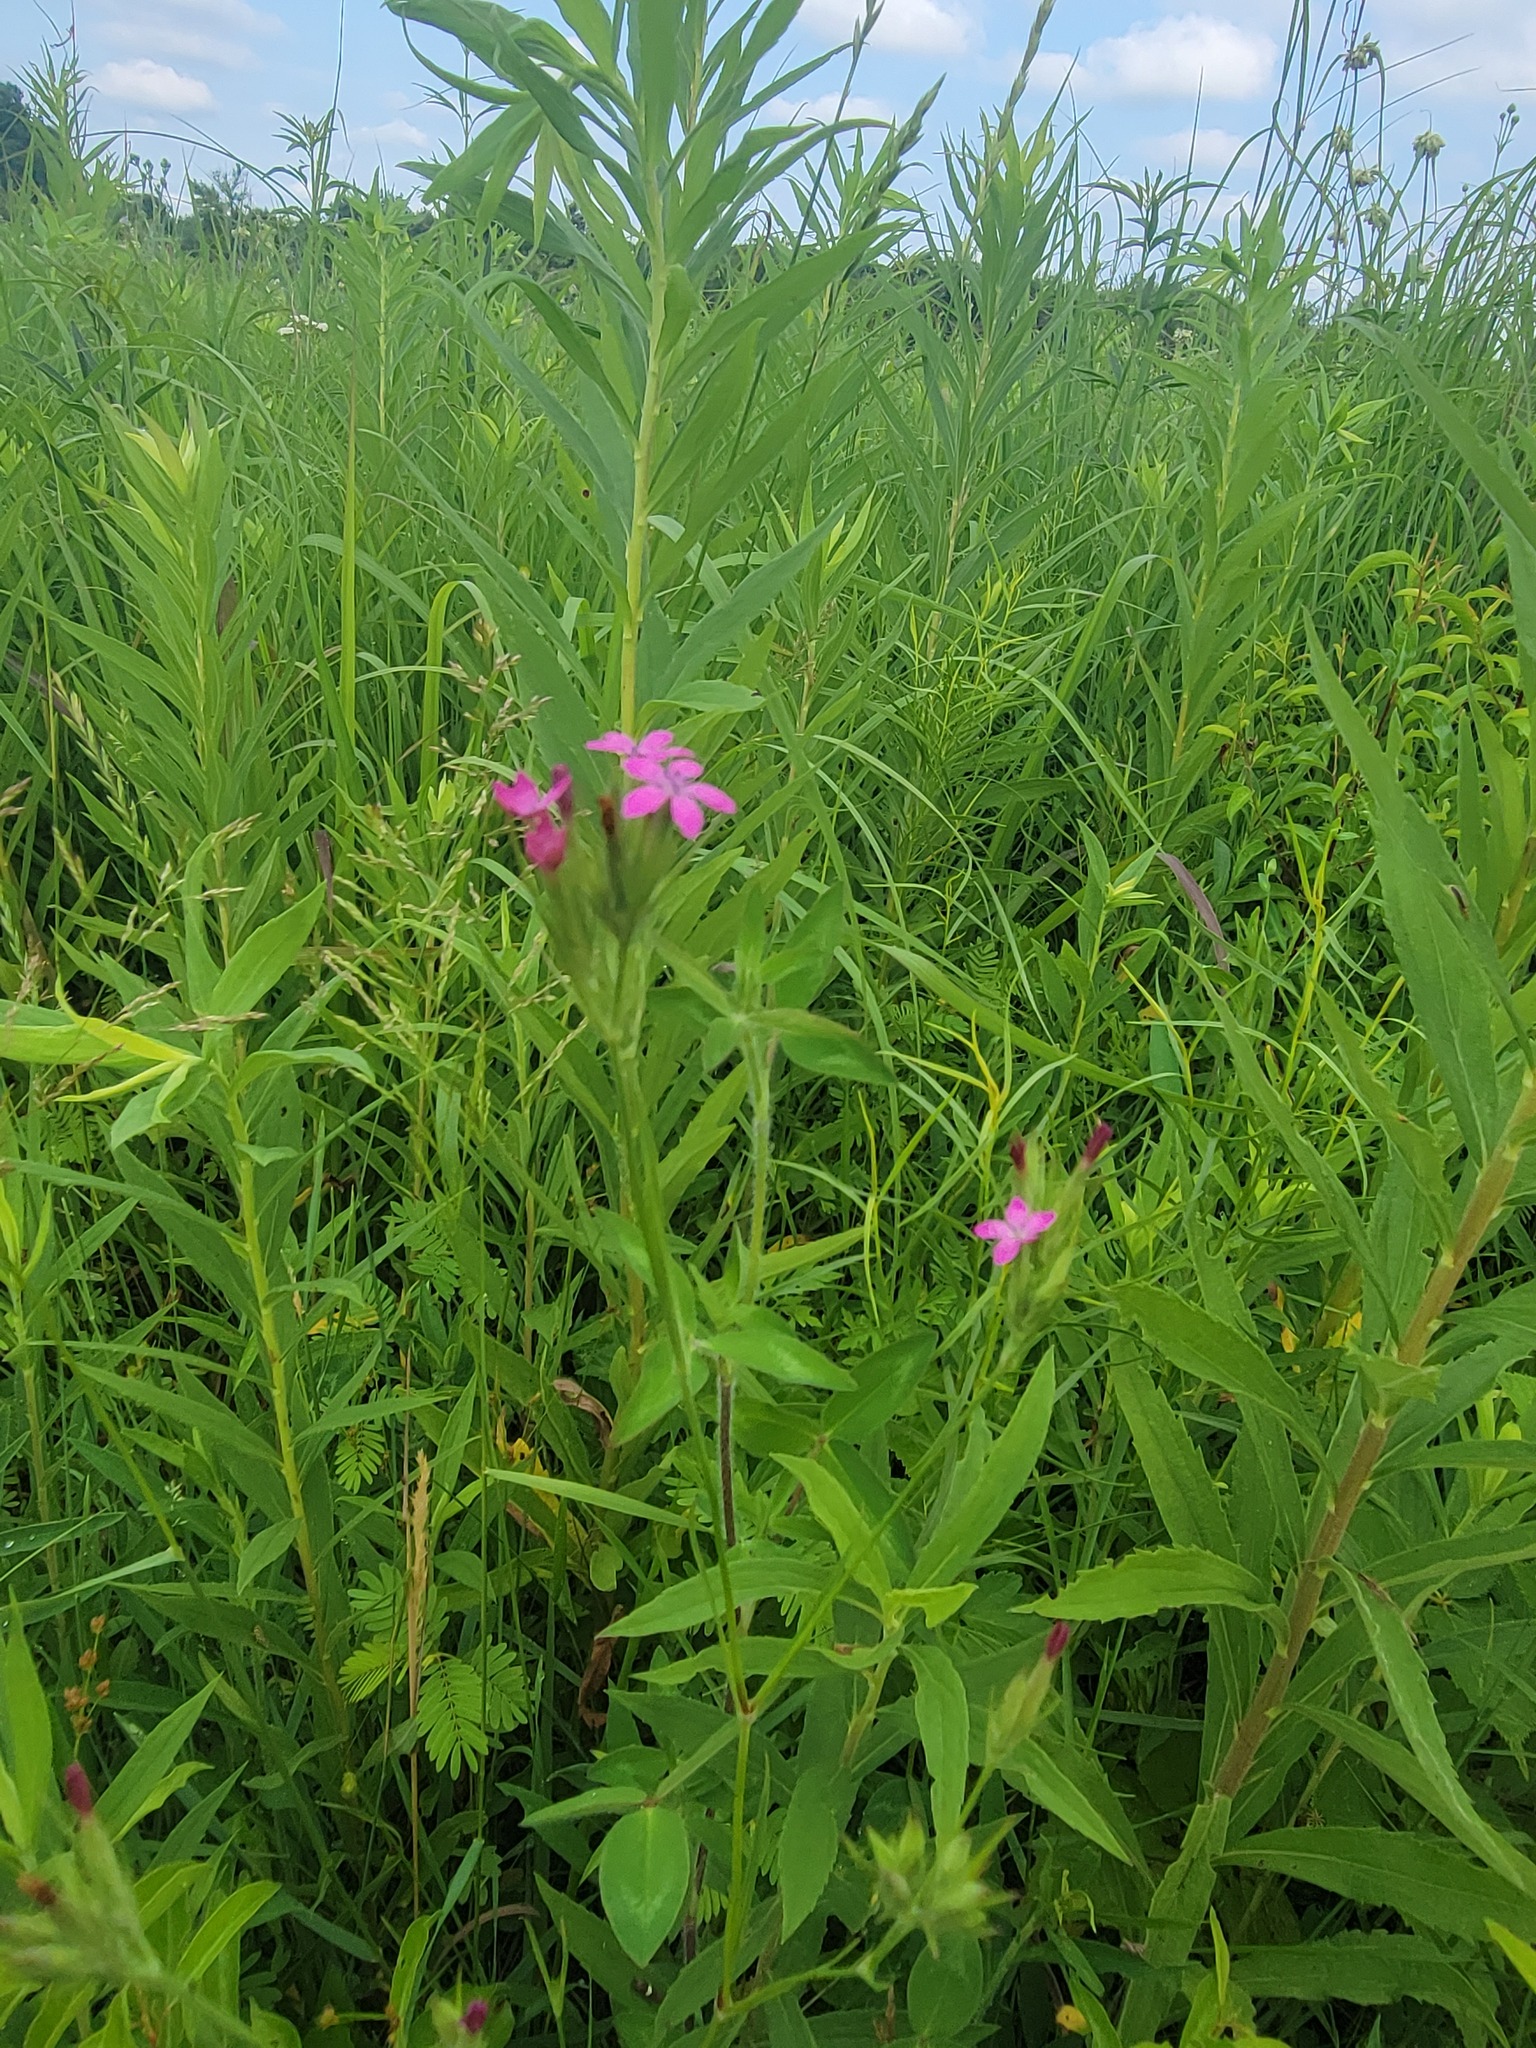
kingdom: Plantae
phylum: Tracheophyta
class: Magnoliopsida
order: Caryophyllales
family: Caryophyllaceae
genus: Dianthus
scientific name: Dianthus armeria
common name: Deptford pink
